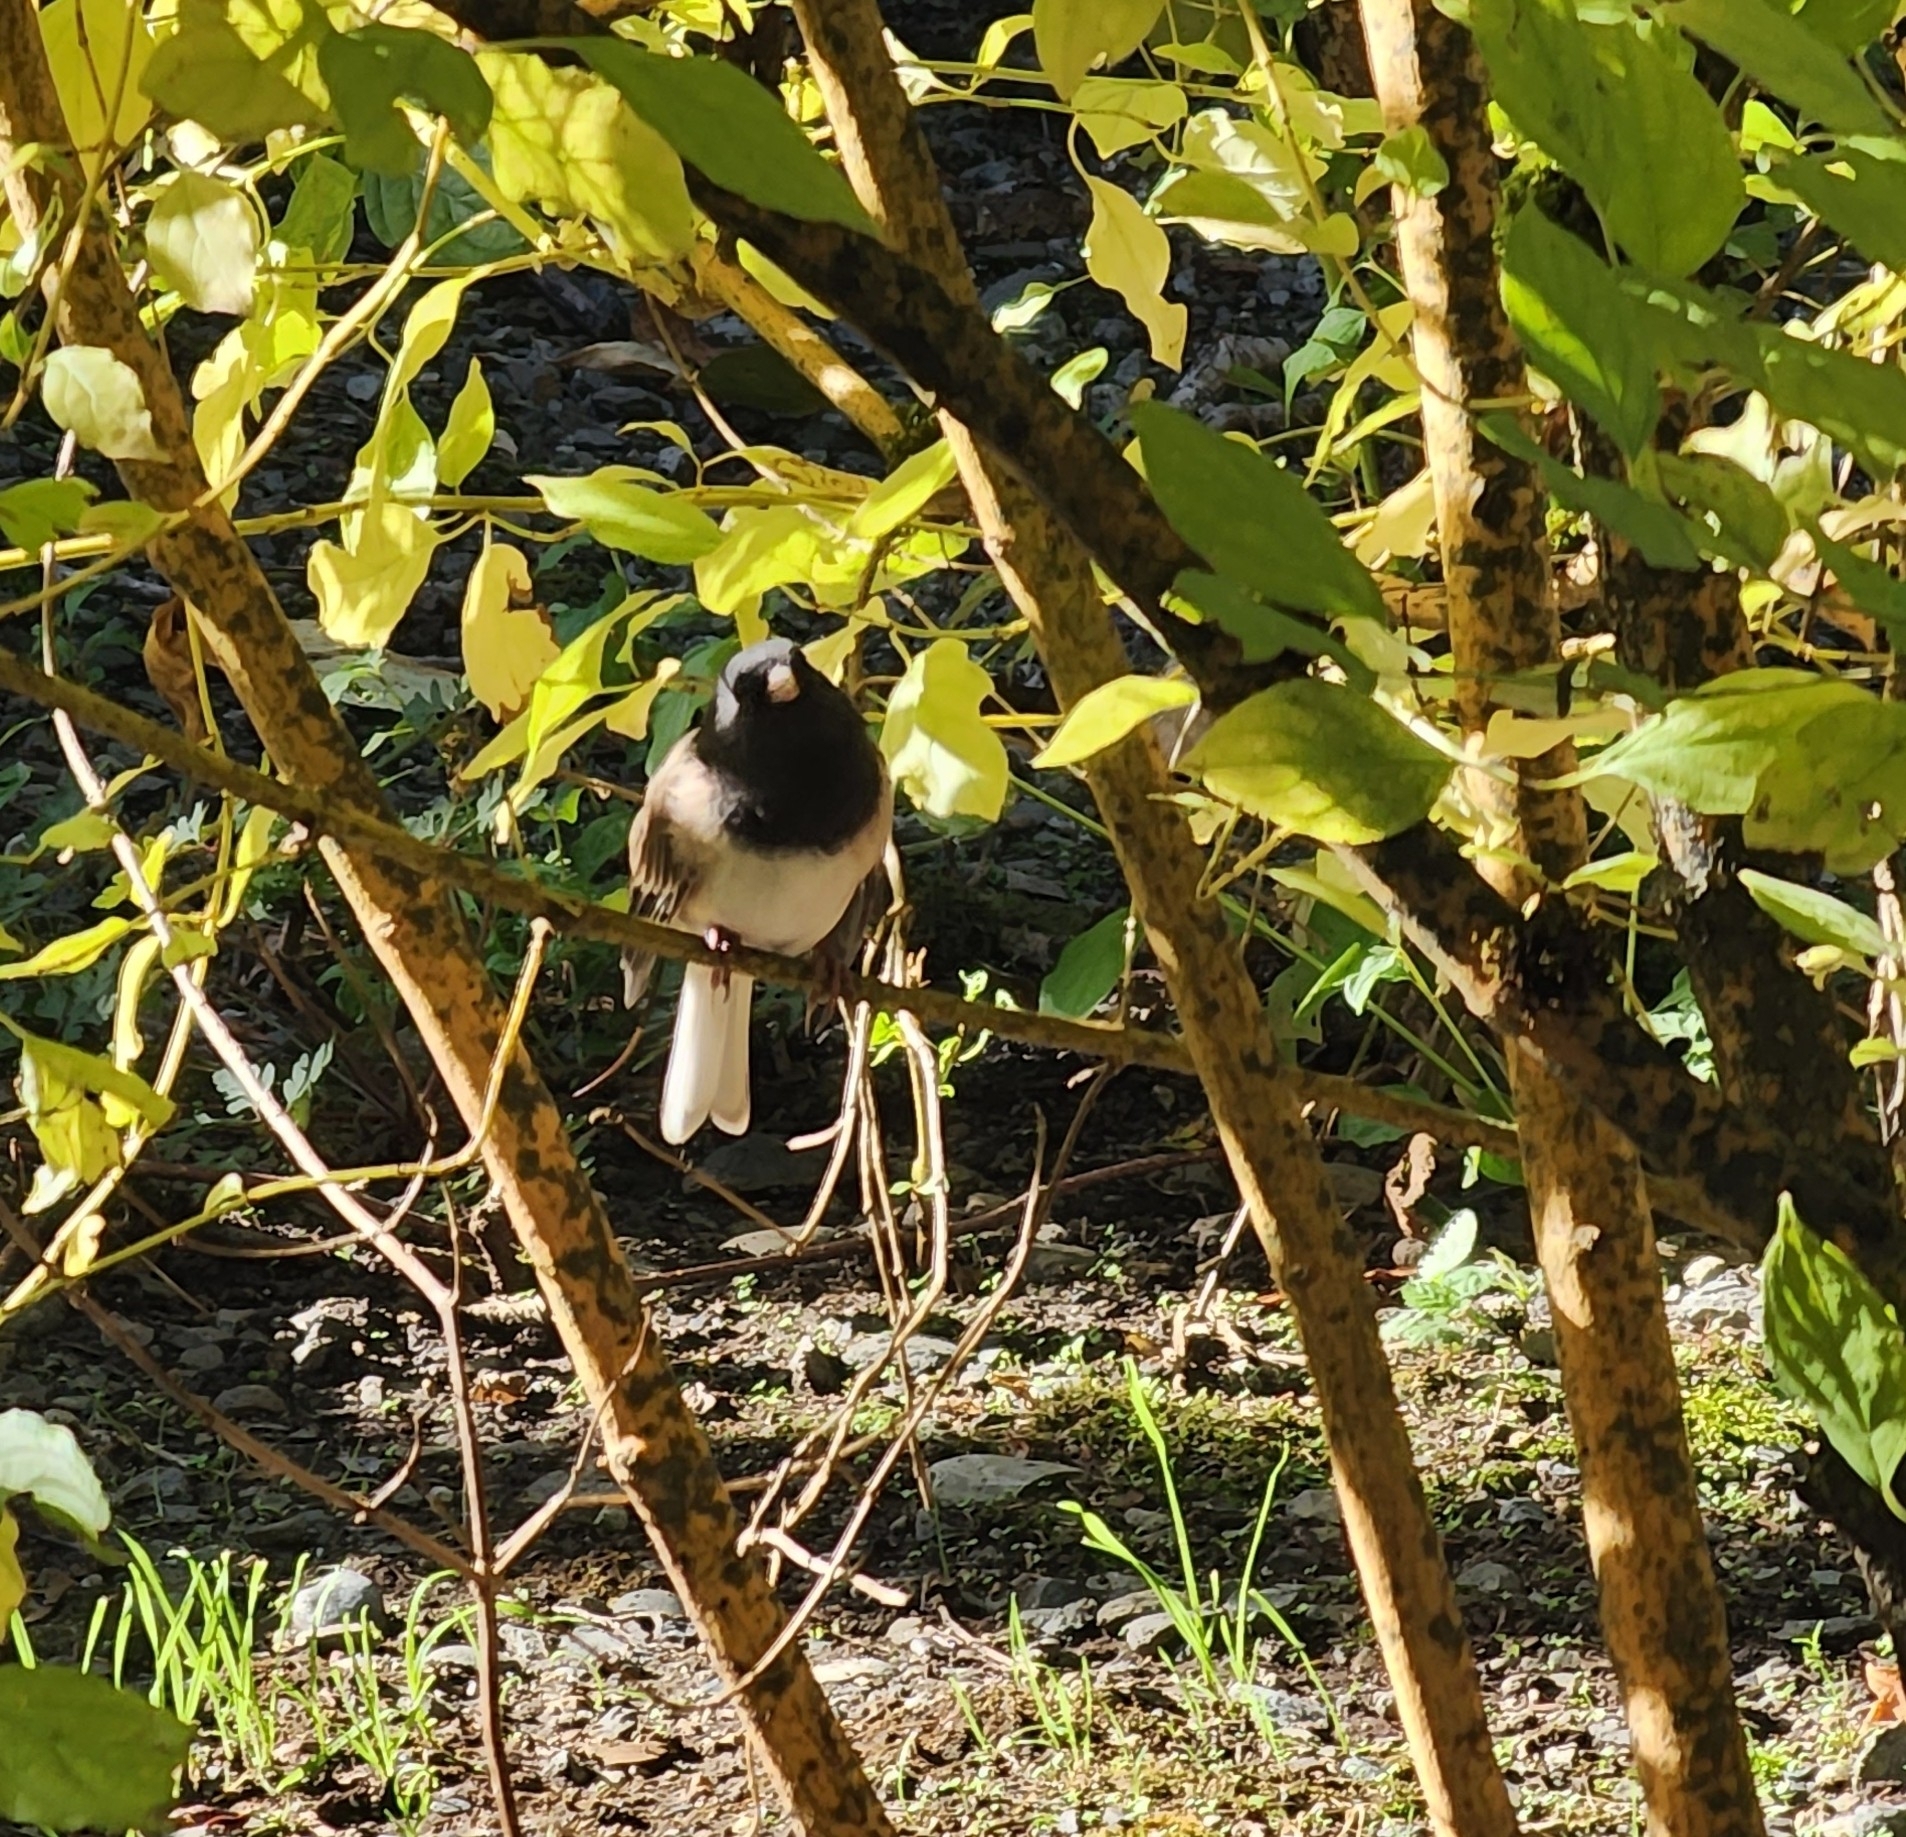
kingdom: Animalia
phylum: Chordata
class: Aves
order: Passeriformes
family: Passerellidae
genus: Junco
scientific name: Junco hyemalis
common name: Dark-eyed junco
